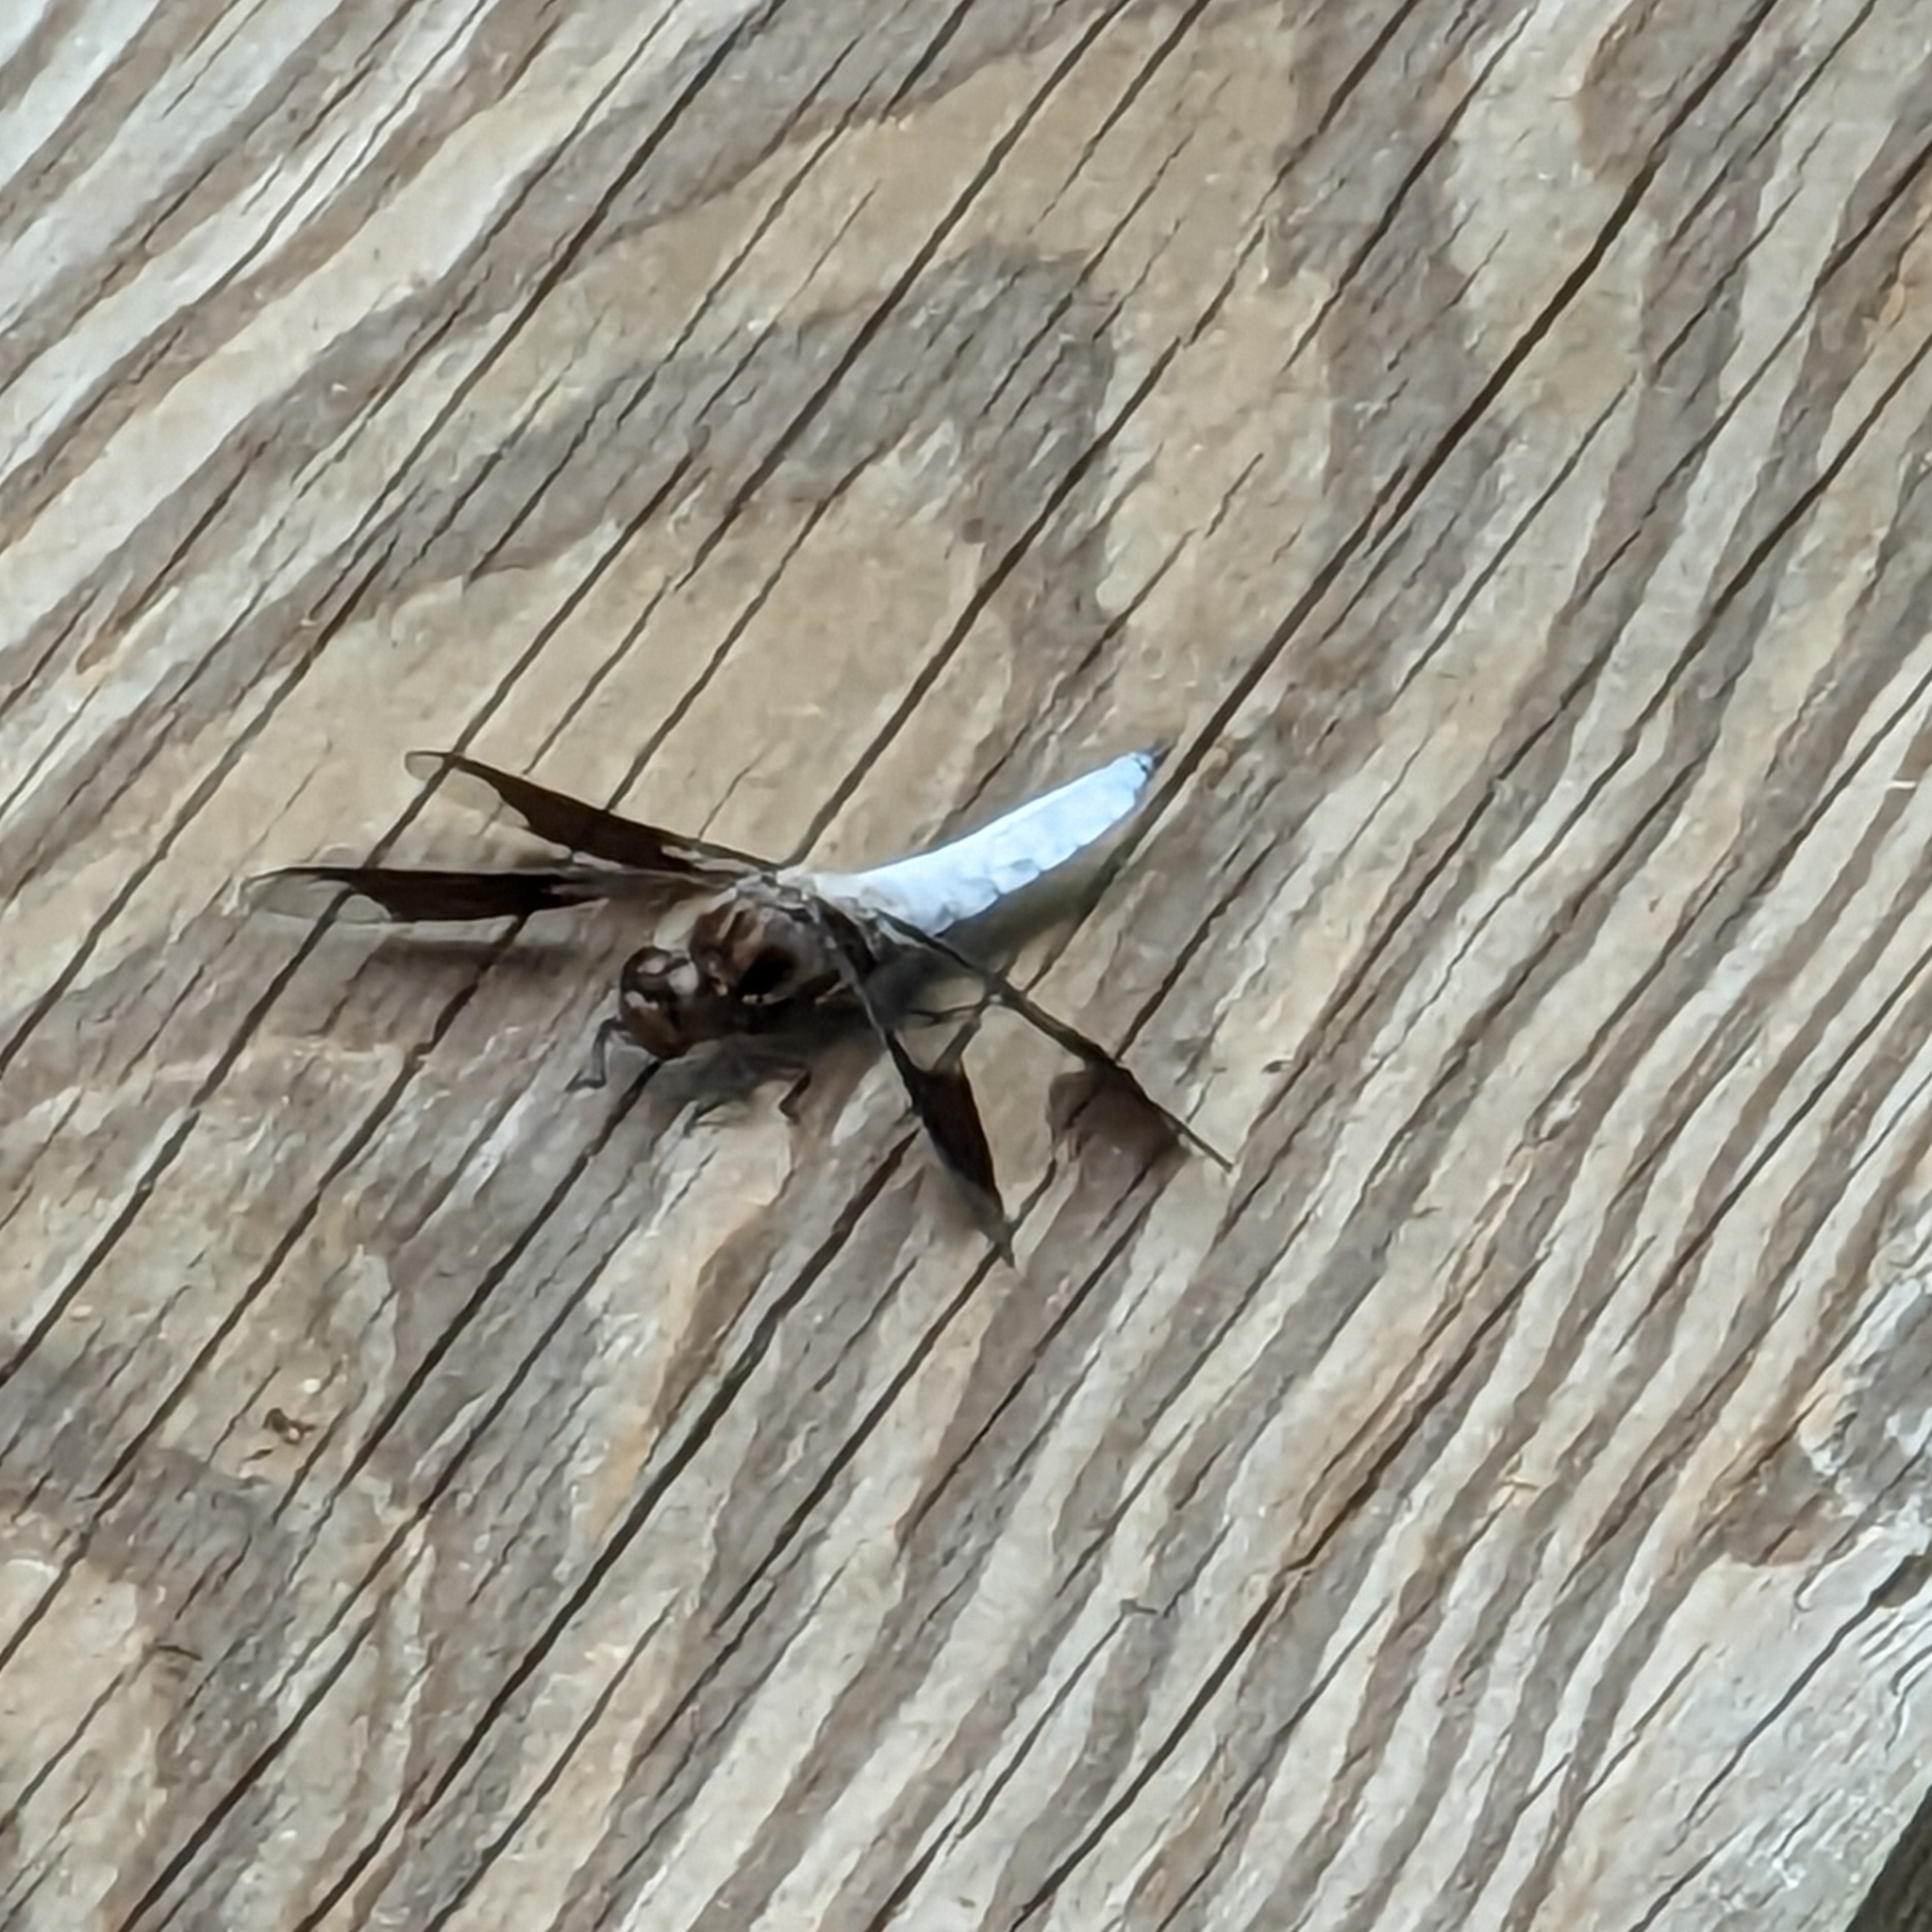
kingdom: Animalia
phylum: Arthropoda
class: Insecta
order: Odonata
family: Libellulidae
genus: Plathemis
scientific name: Plathemis lydia
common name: Common whitetail
